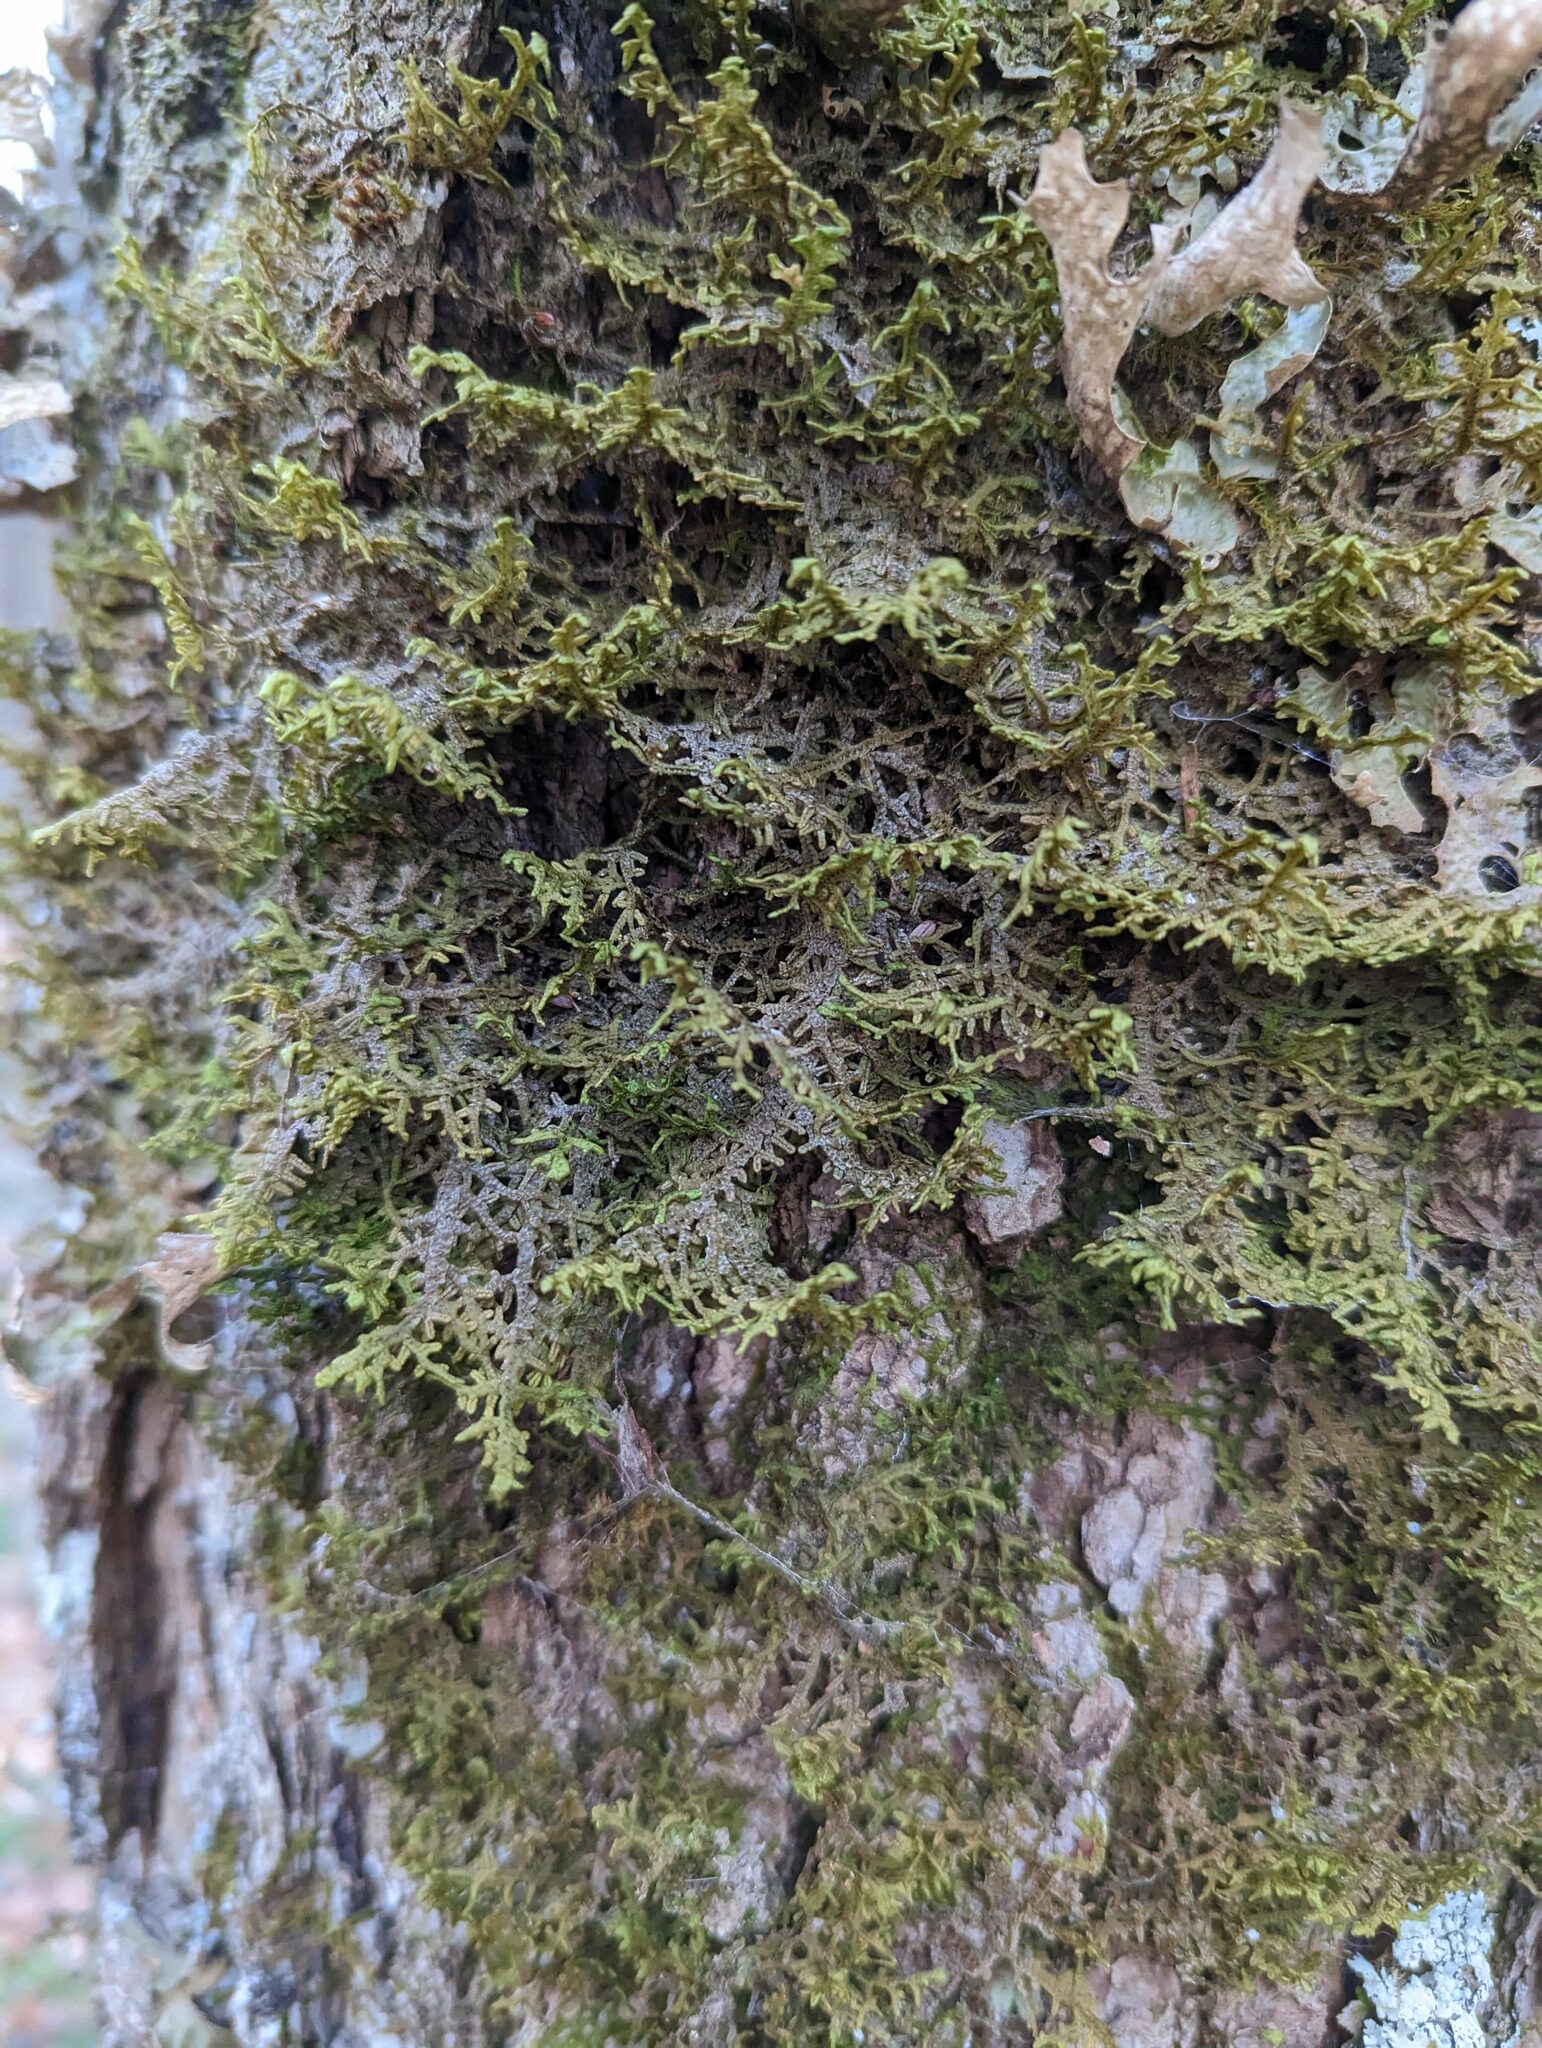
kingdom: Plantae
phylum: Marchantiophyta
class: Jungermanniopsida
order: Porellales
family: Porellaceae
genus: Porella
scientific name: Porella platyphylla
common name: Wall scalewort
